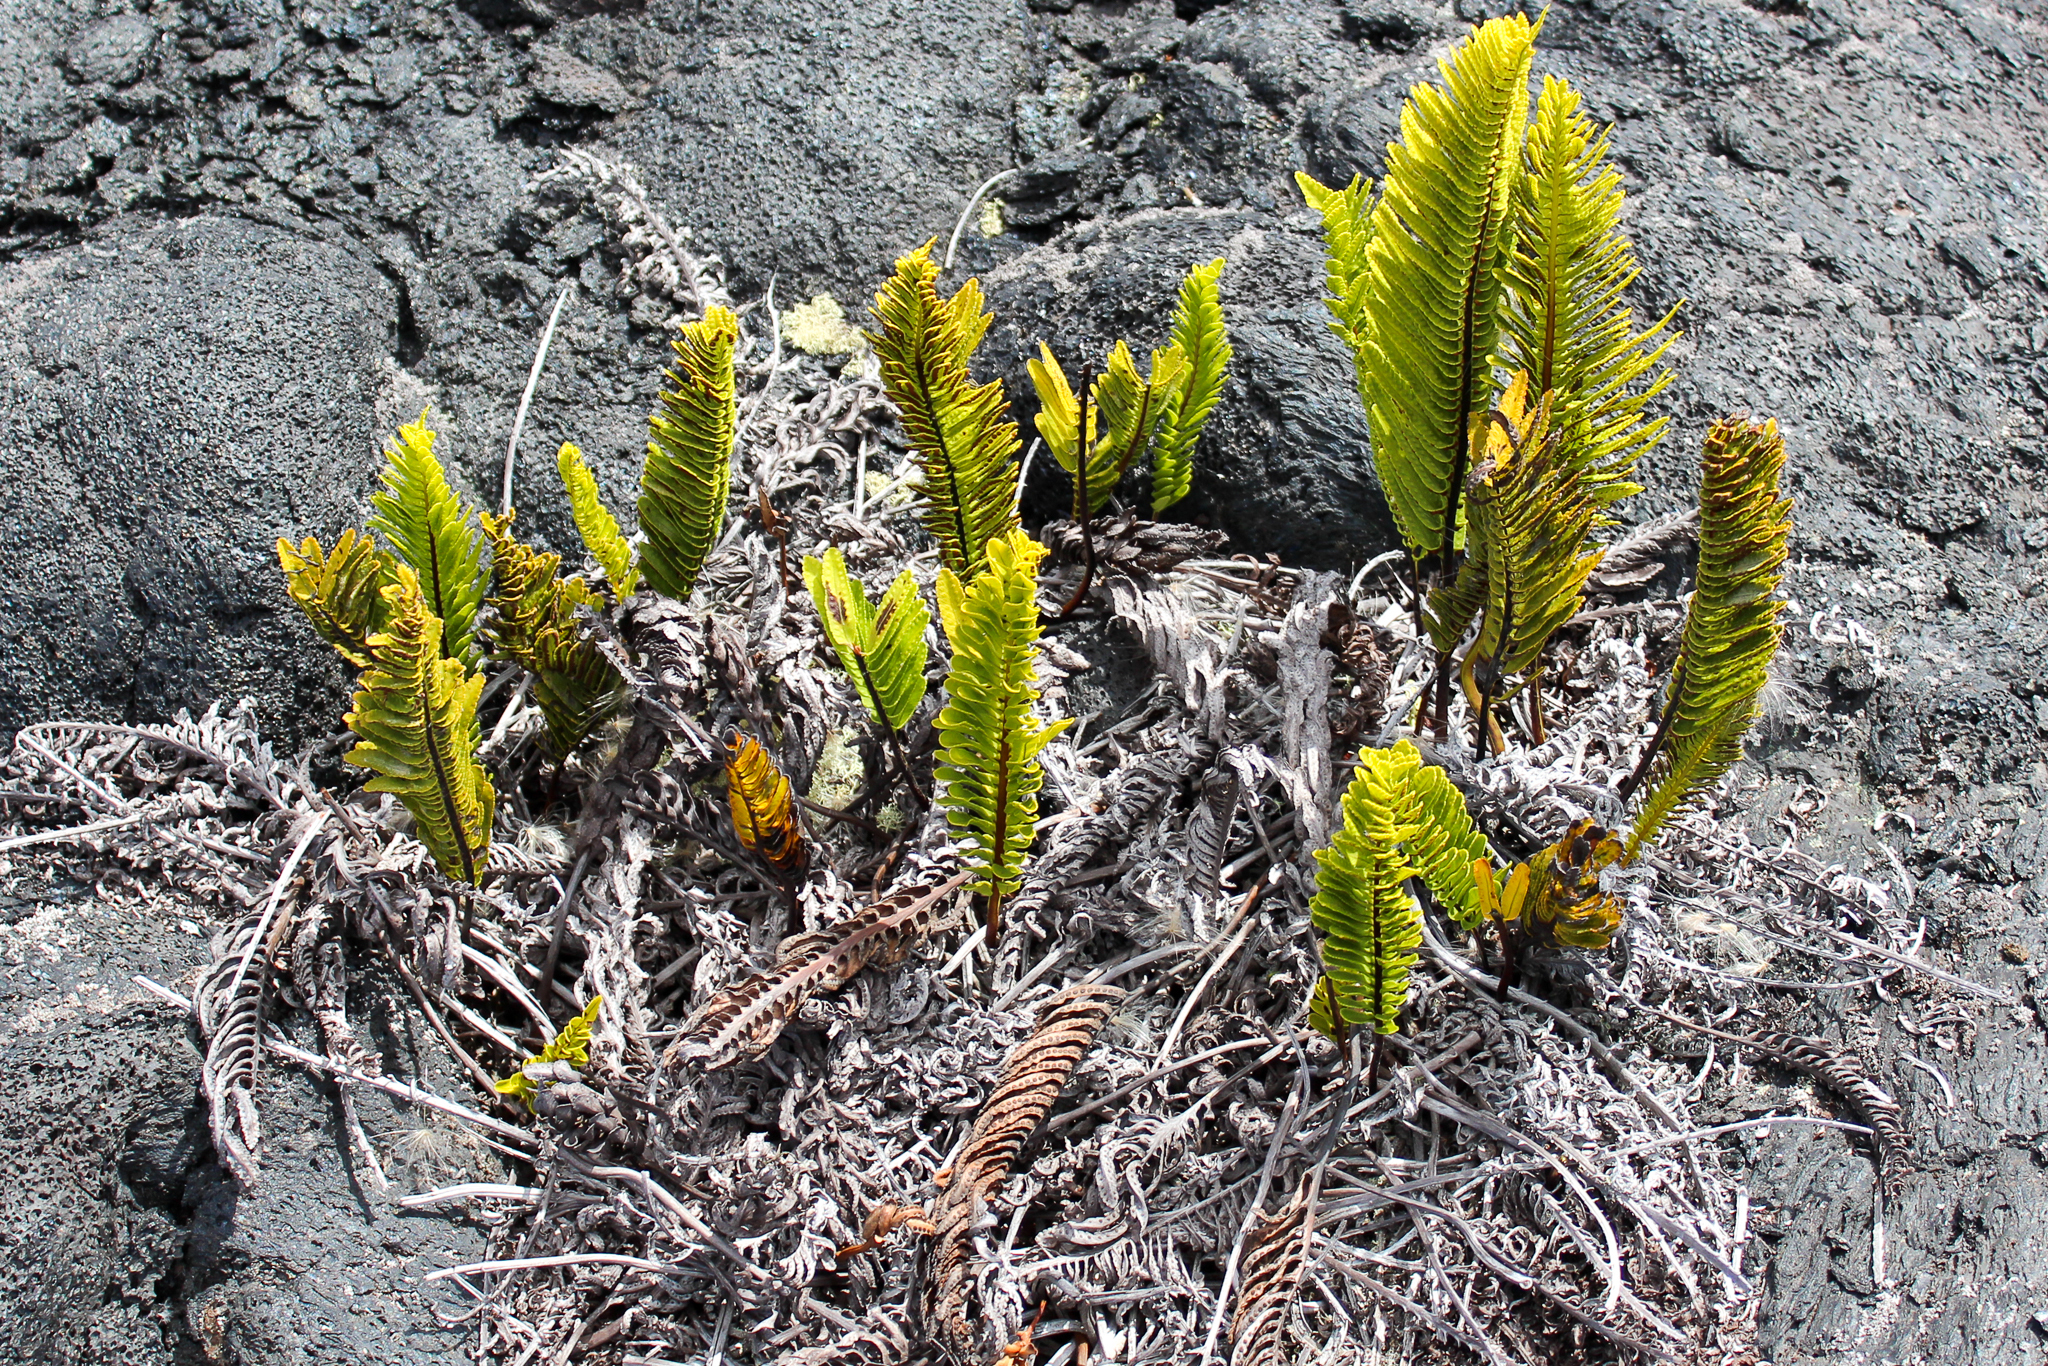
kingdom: Plantae
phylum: Tracheophyta
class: Polypodiopsida
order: Polypodiales
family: Polypodiaceae
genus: Polypodium
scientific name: Polypodium pellucidum
